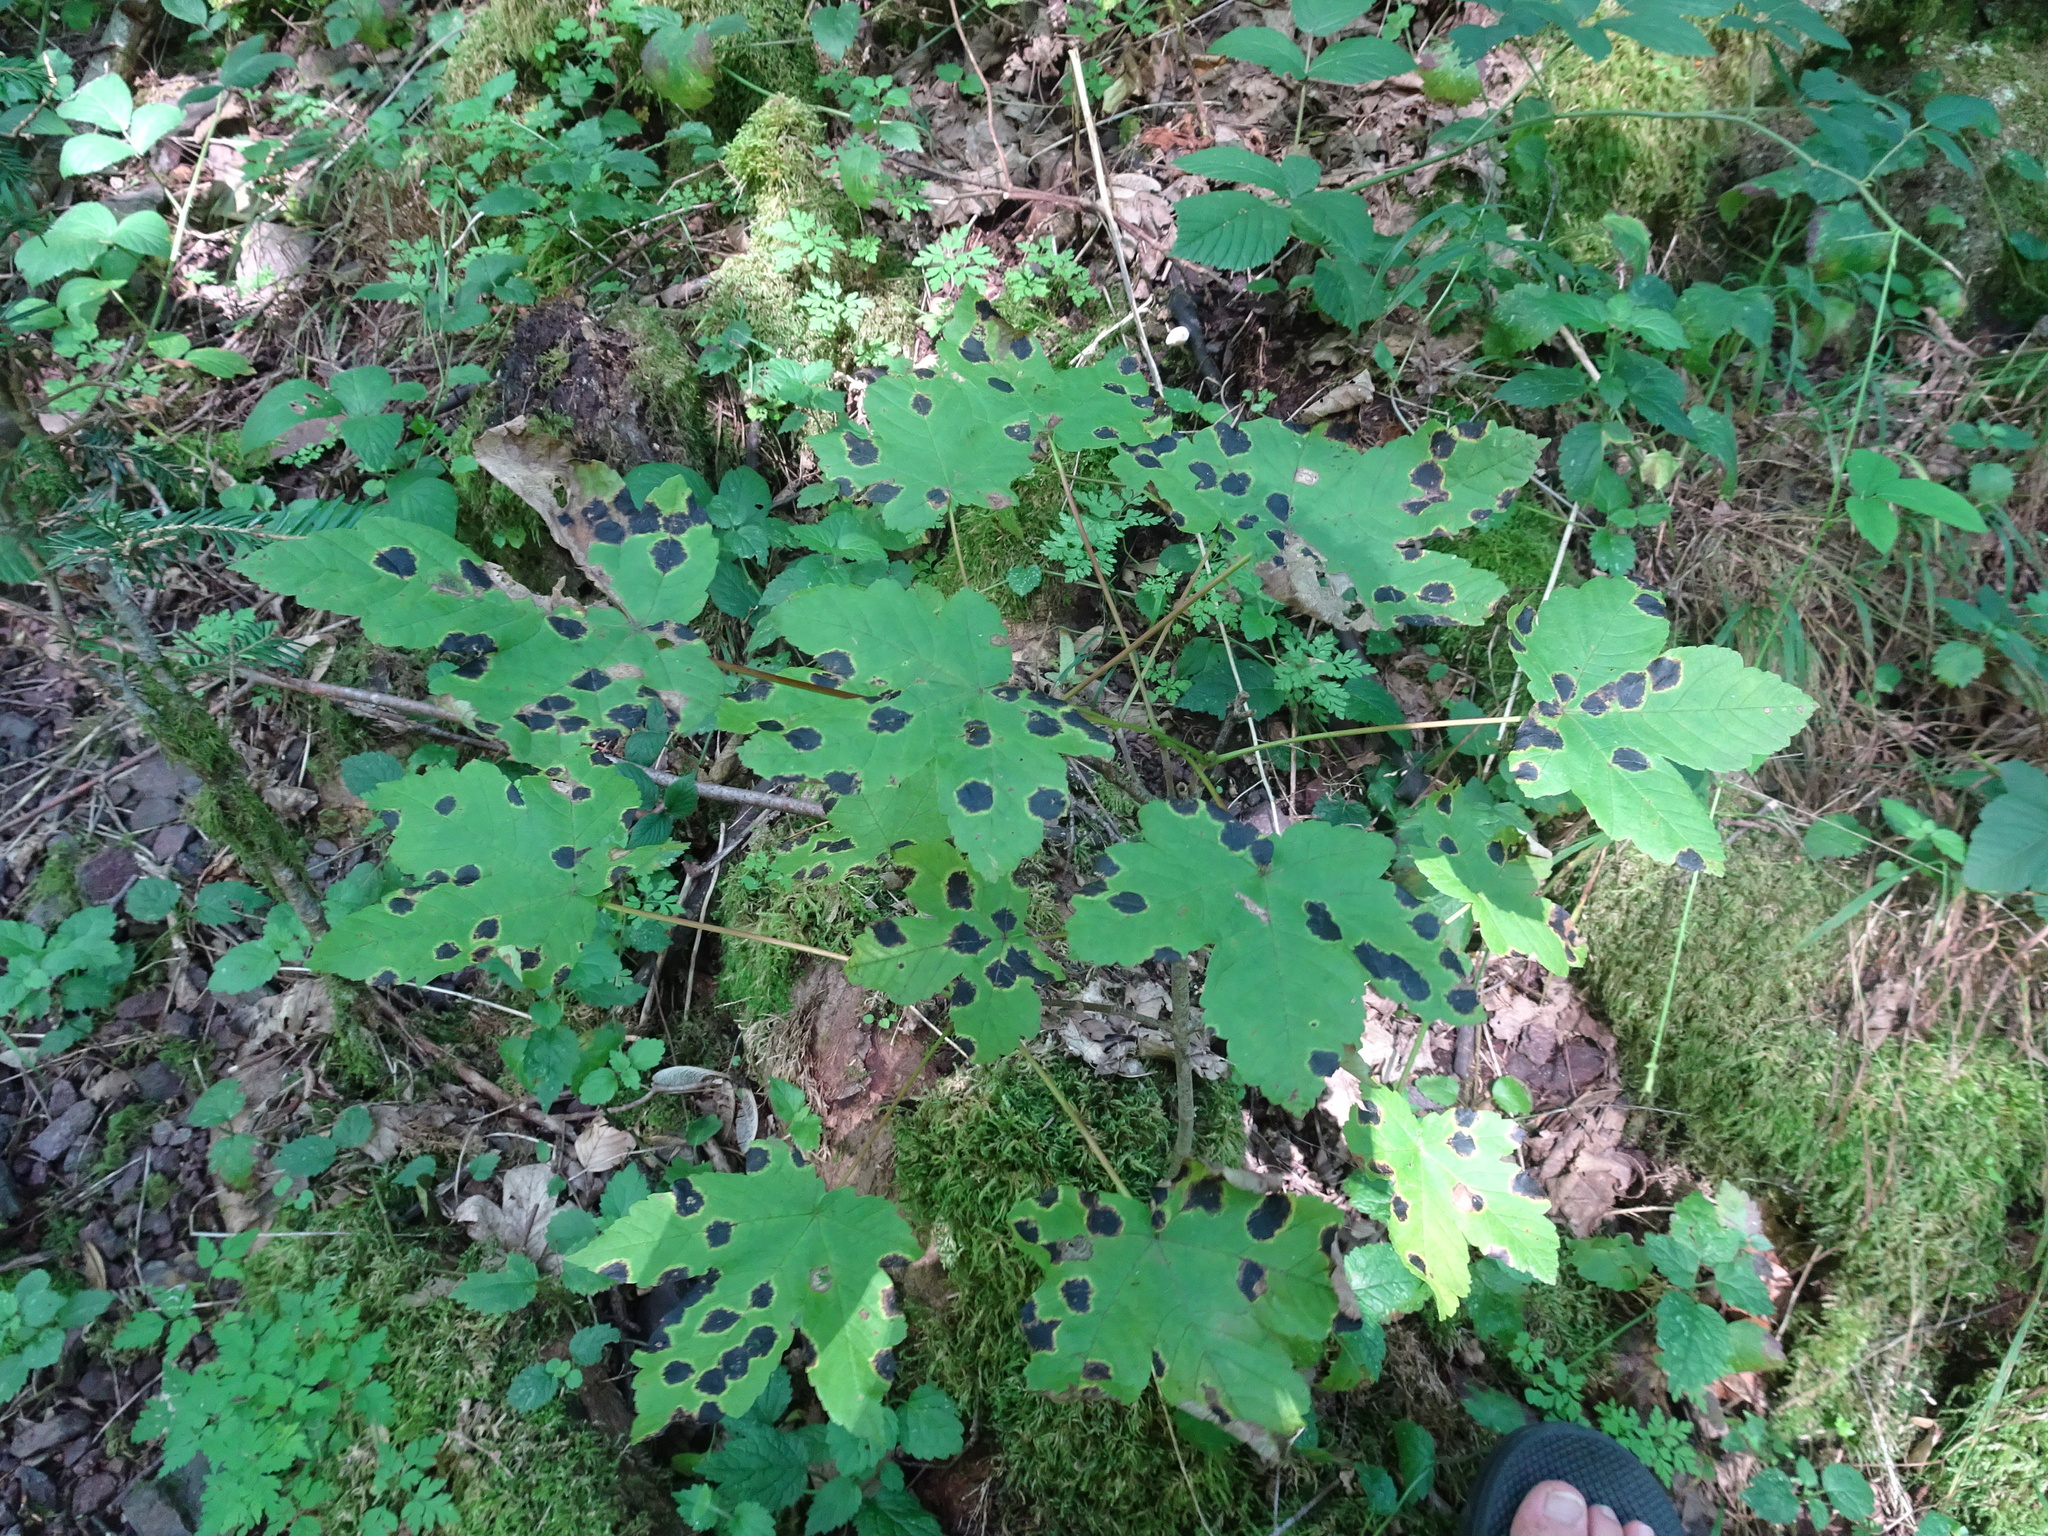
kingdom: Fungi
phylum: Ascomycota
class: Leotiomycetes
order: Rhytismatales
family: Rhytismataceae
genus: Rhytisma
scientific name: Rhytisma acerinum
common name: European tar spot
